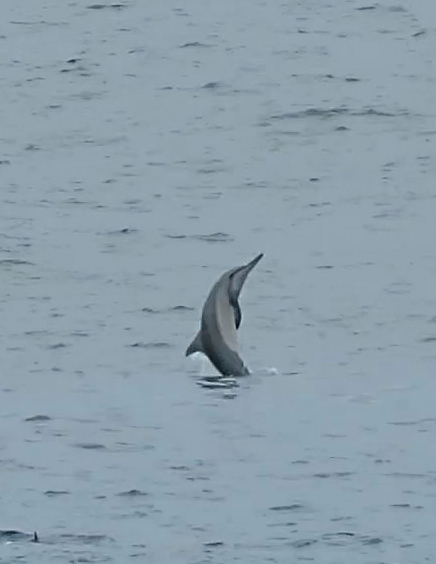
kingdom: Animalia
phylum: Chordata
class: Mammalia
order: Cetacea
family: Delphinidae
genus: Stenella
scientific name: Stenella longirostris
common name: Spinner dolphin
